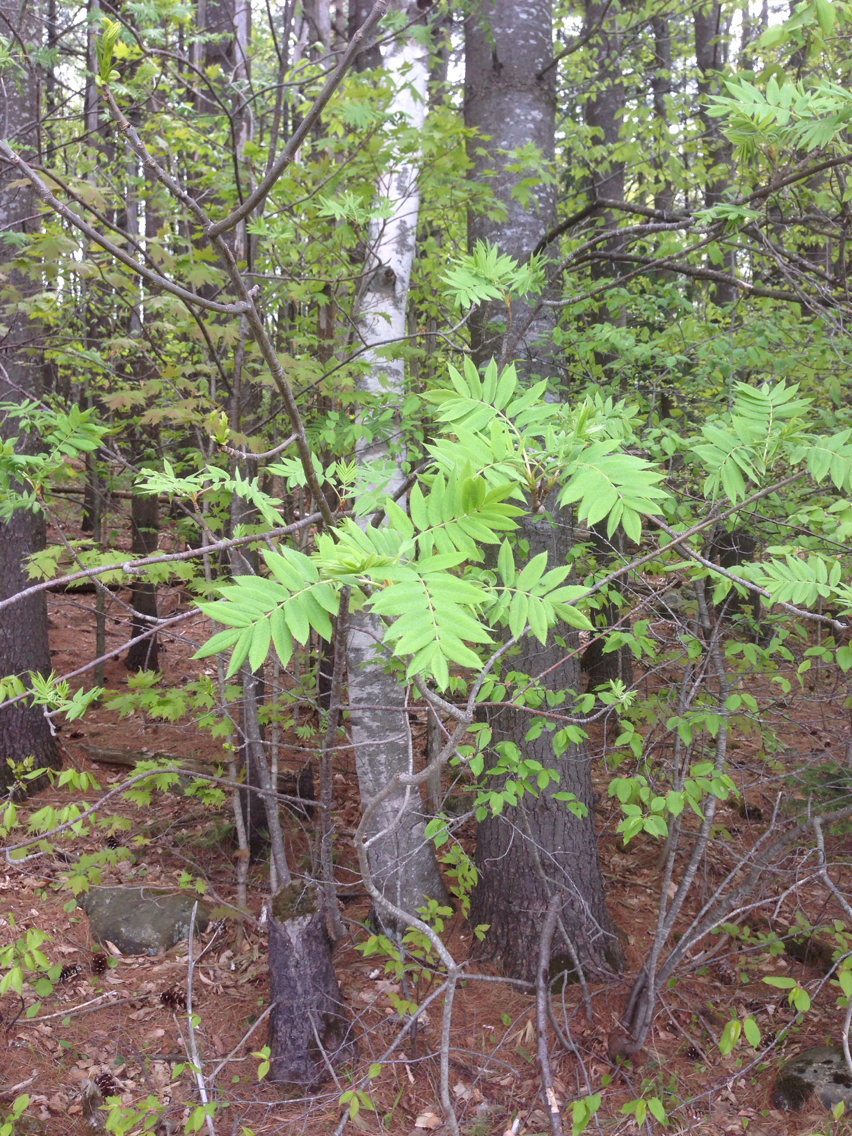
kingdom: Plantae
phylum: Tracheophyta
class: Magnoliopsida
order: Rosales
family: Rosaceae
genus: Sorbus
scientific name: Sorbus americana
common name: American mountain-ash
